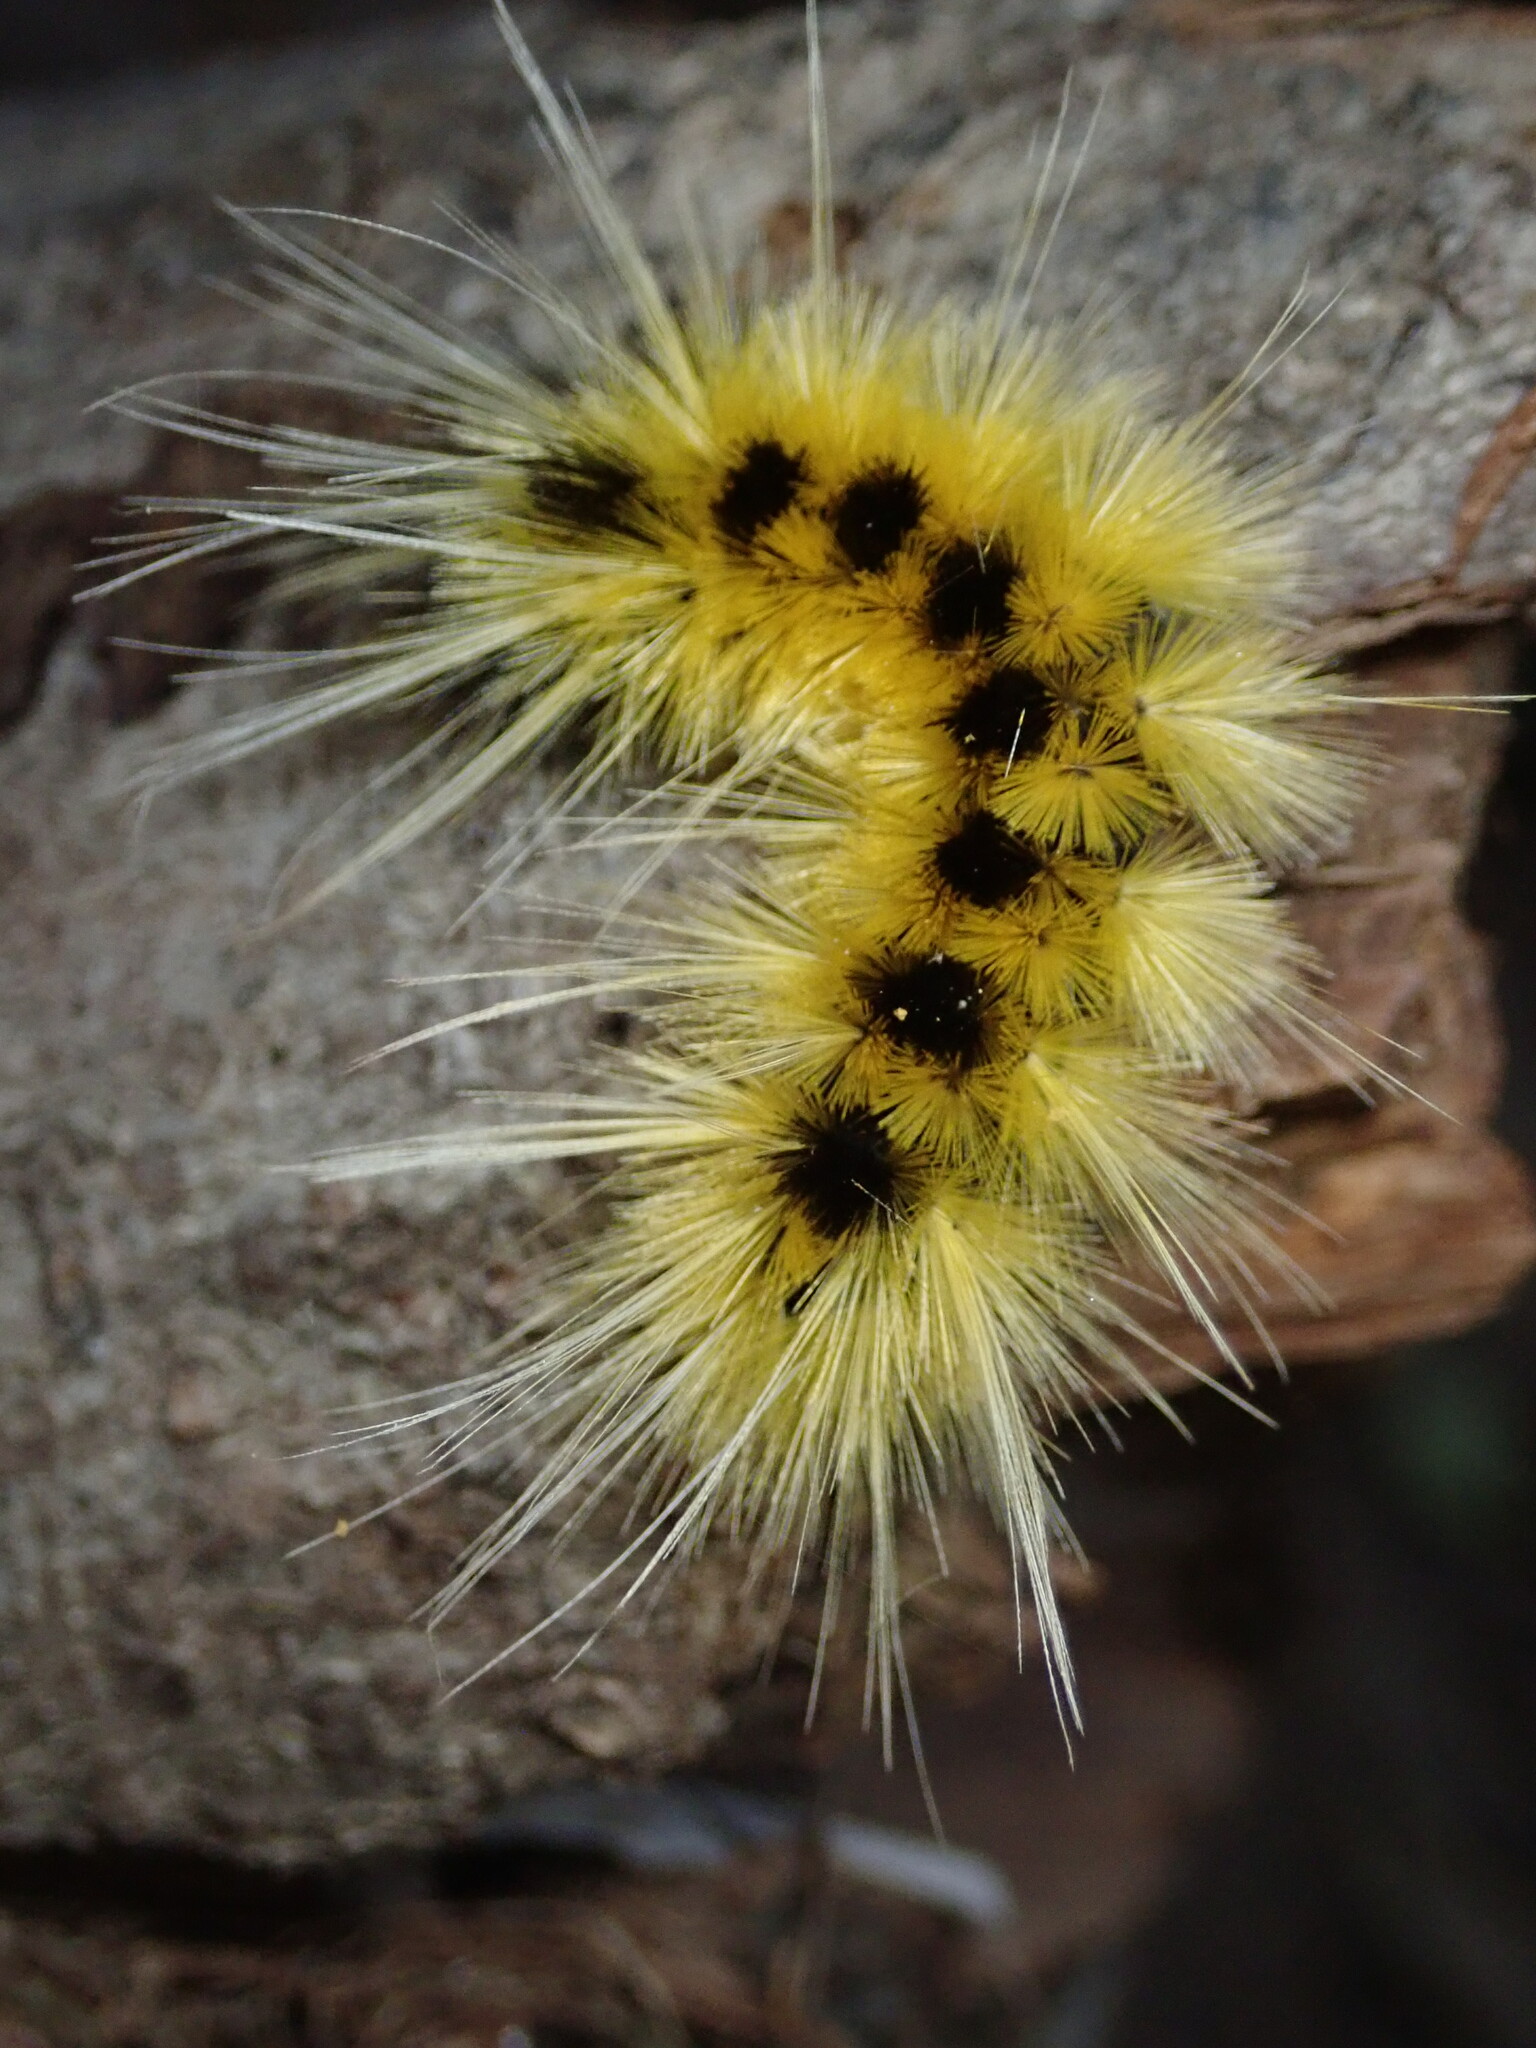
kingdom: Animalia
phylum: Arthropoda
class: Insecta
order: Lepidoptera
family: Erebidae
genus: Lophocampa
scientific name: Lophocampa maculata
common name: Spotted tussock moth
